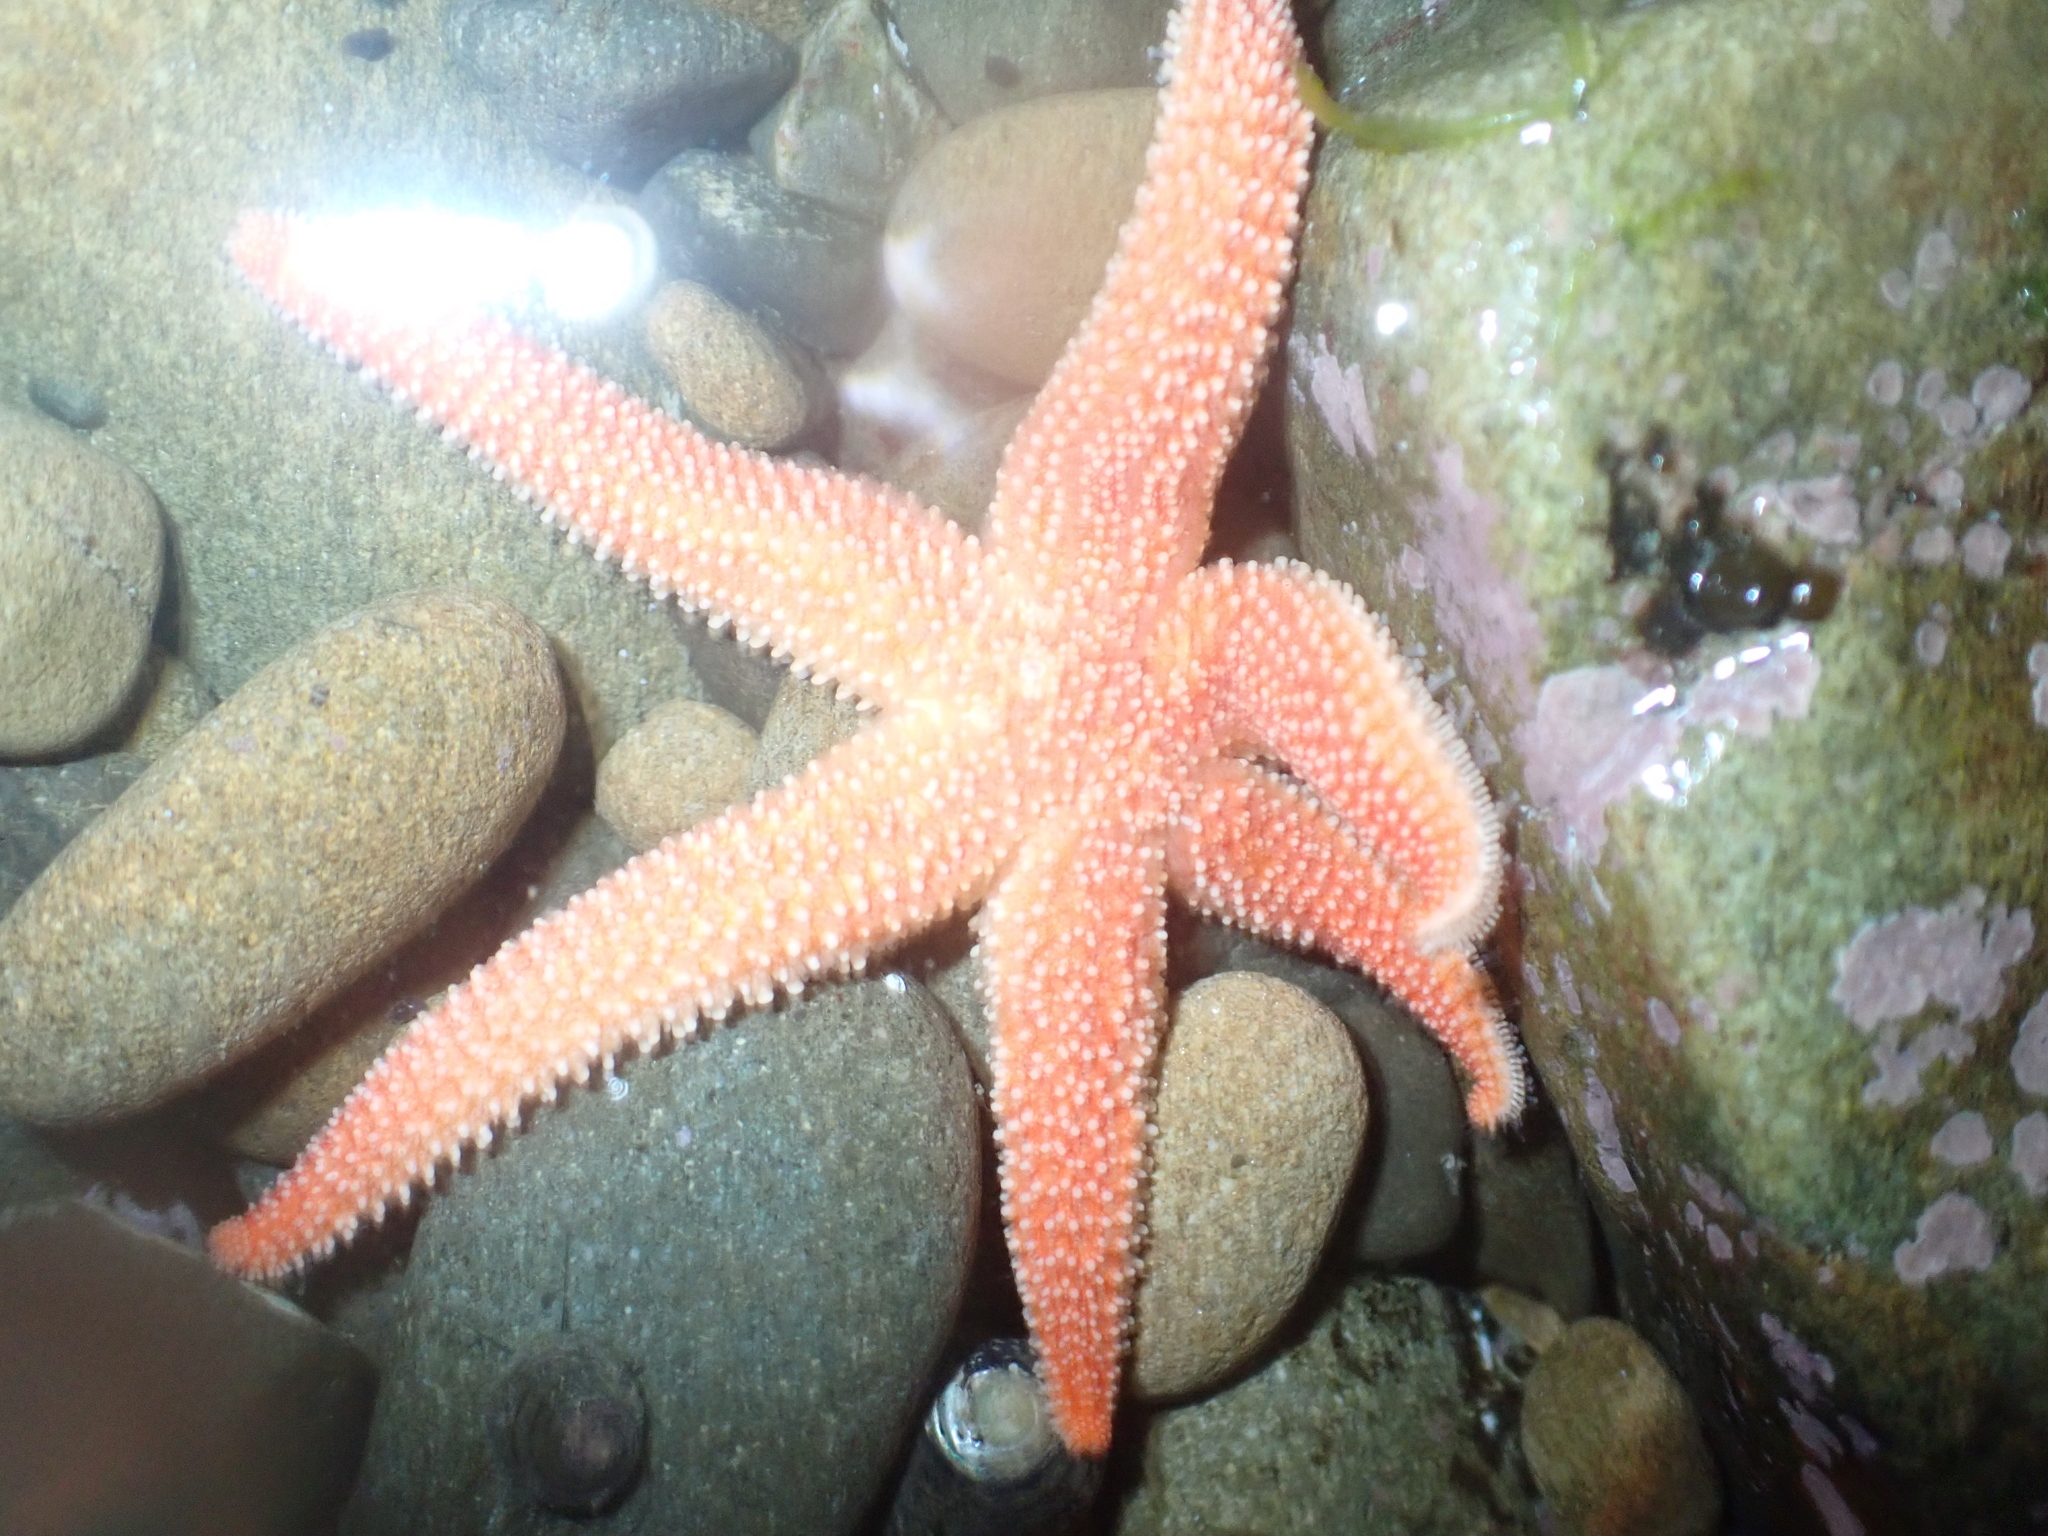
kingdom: Animalia
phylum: Echinodermata
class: Asteroidea
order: Forcipulatida
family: Stichasteridae
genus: Allostichaster
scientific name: Allostichaster insignis
